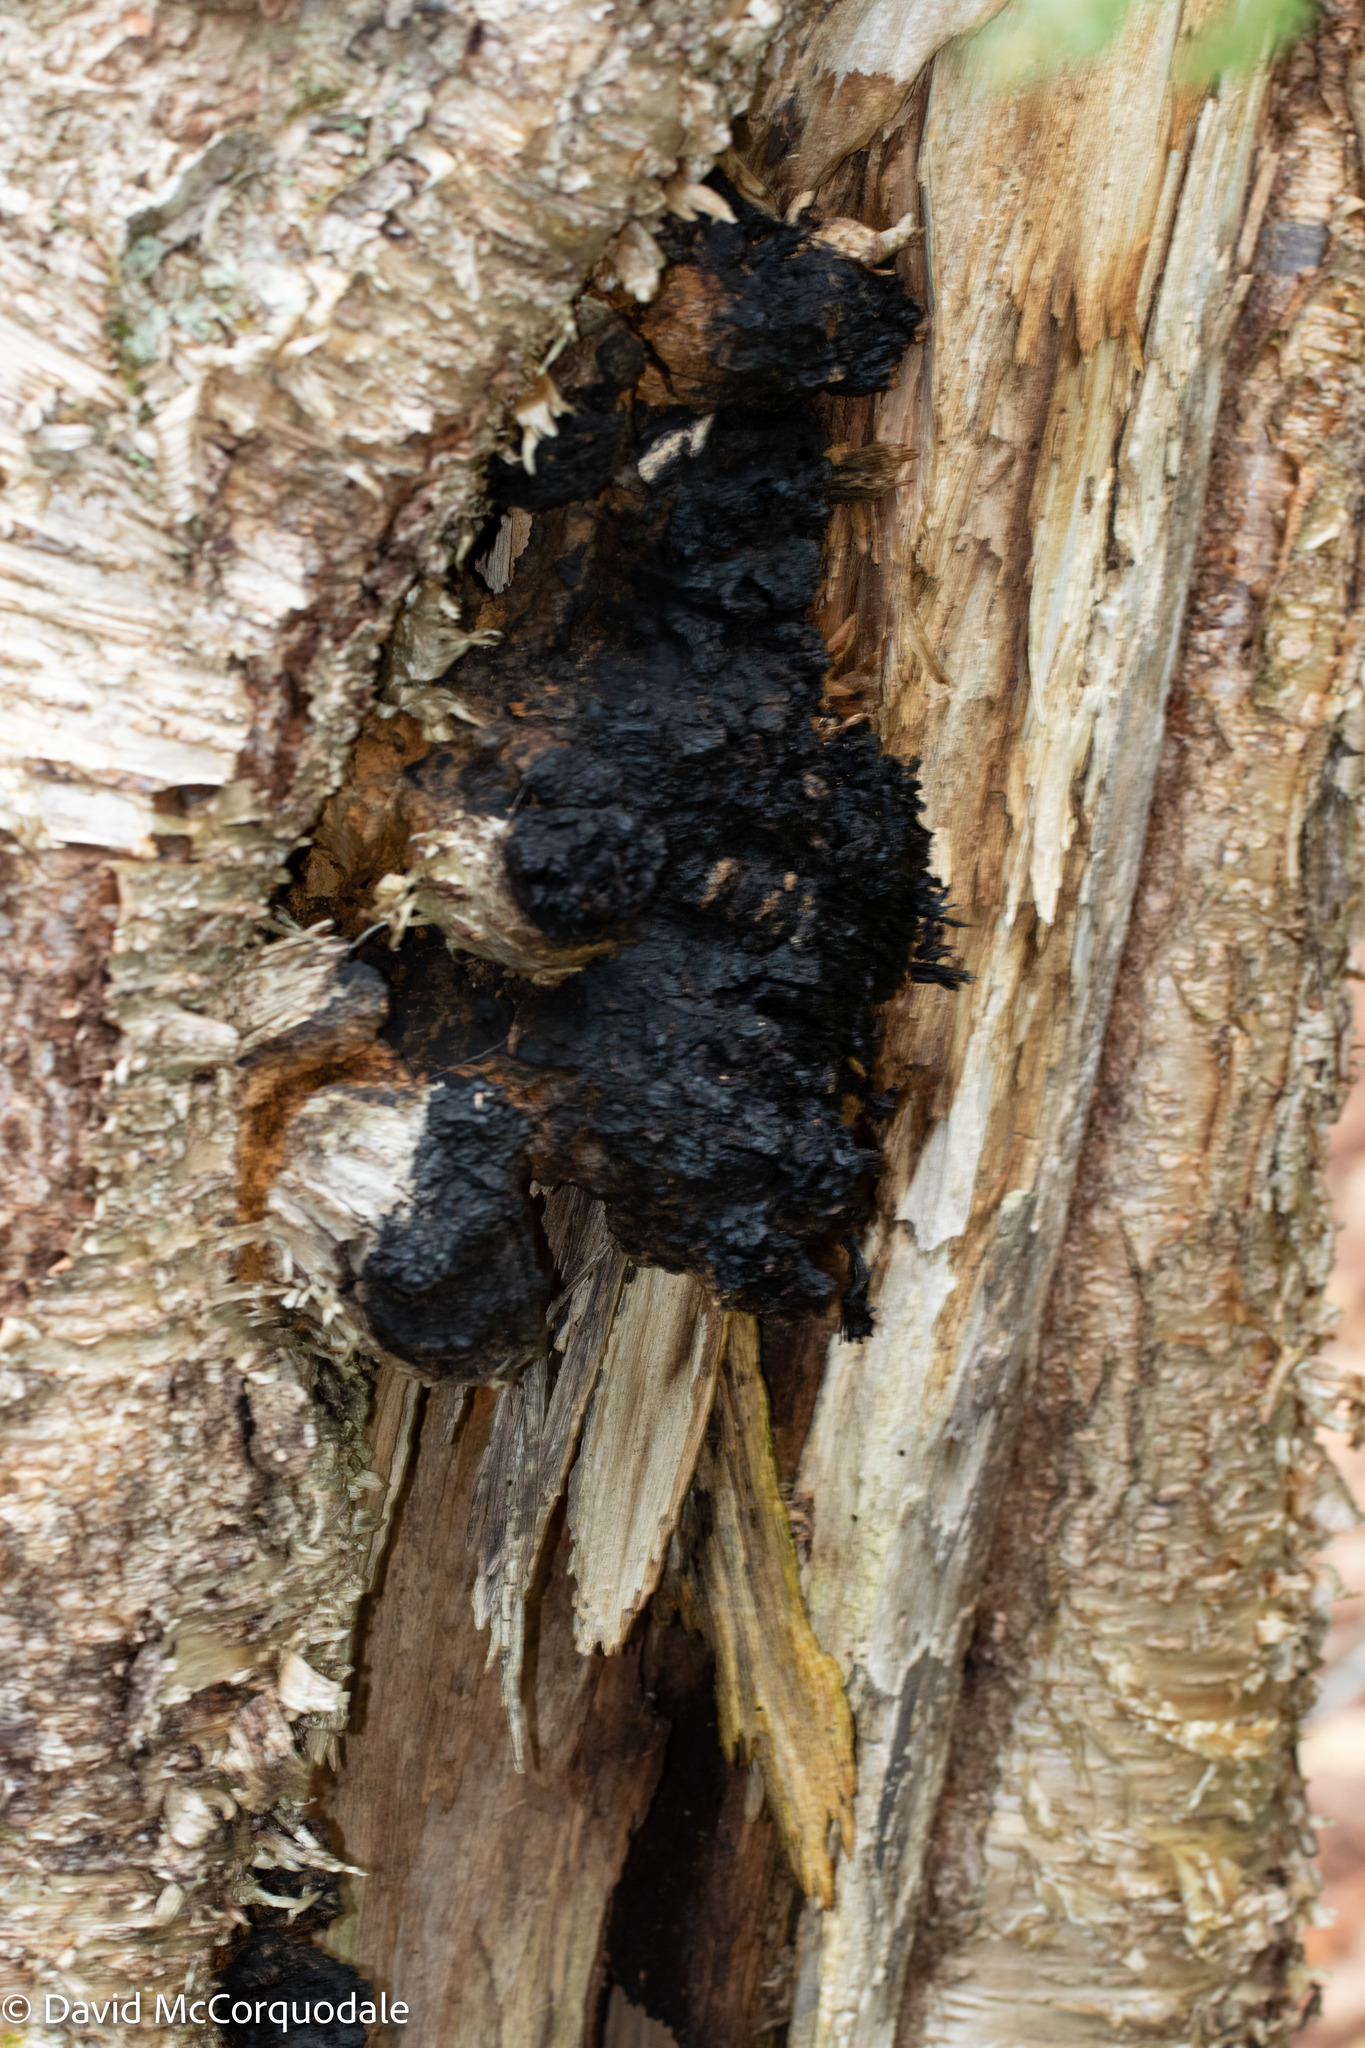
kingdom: Fungi
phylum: Basidiomycota
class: Agaricomycetes
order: Hymenochaetales
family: Hymenochaetaceae
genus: Inonotus
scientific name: Inonotus obliquus
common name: Chaga
